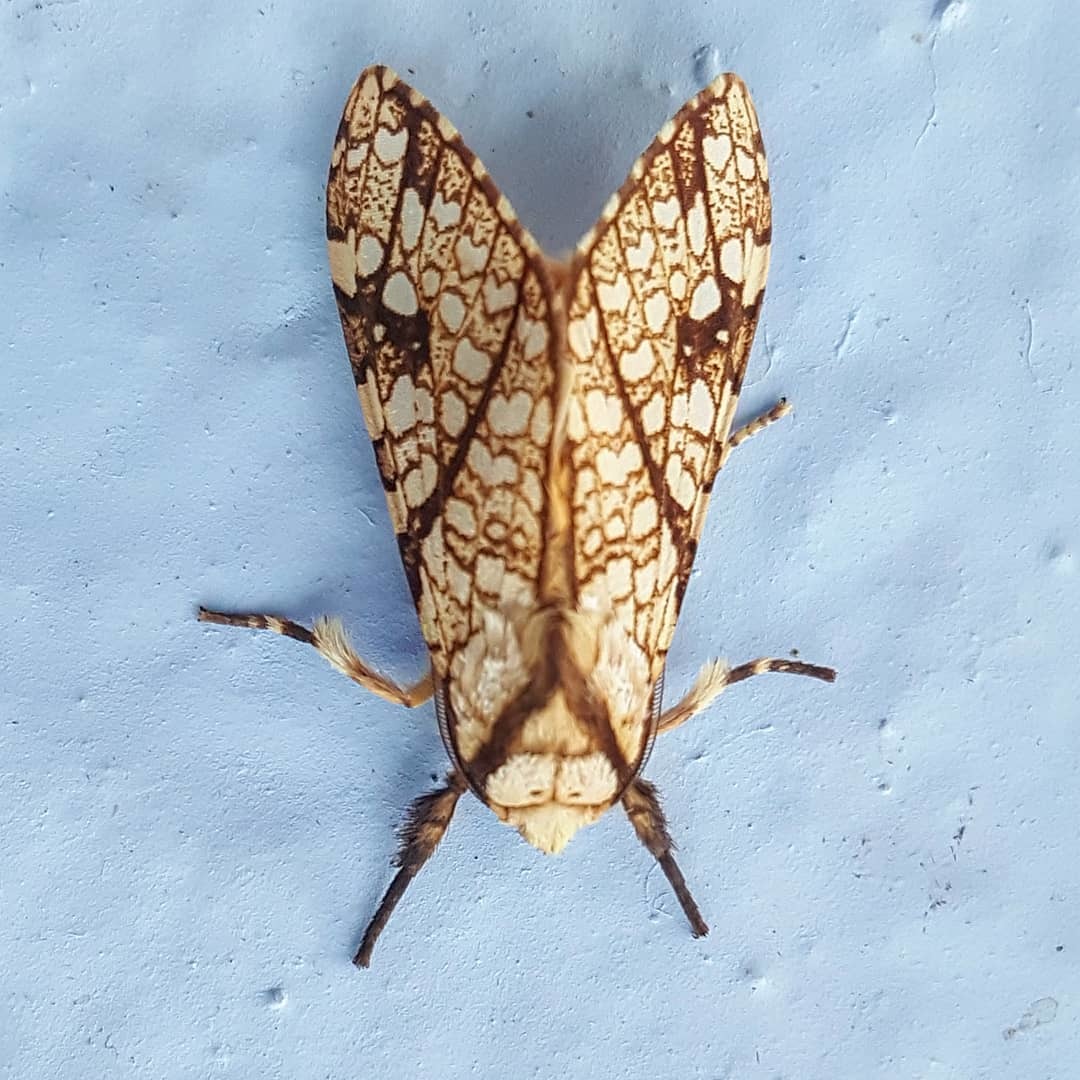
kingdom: Animalia
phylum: Arthropoda
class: Insecta
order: Lepidoptera
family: Erebidae
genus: Lophocampa
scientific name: Lophocampa propinqua
